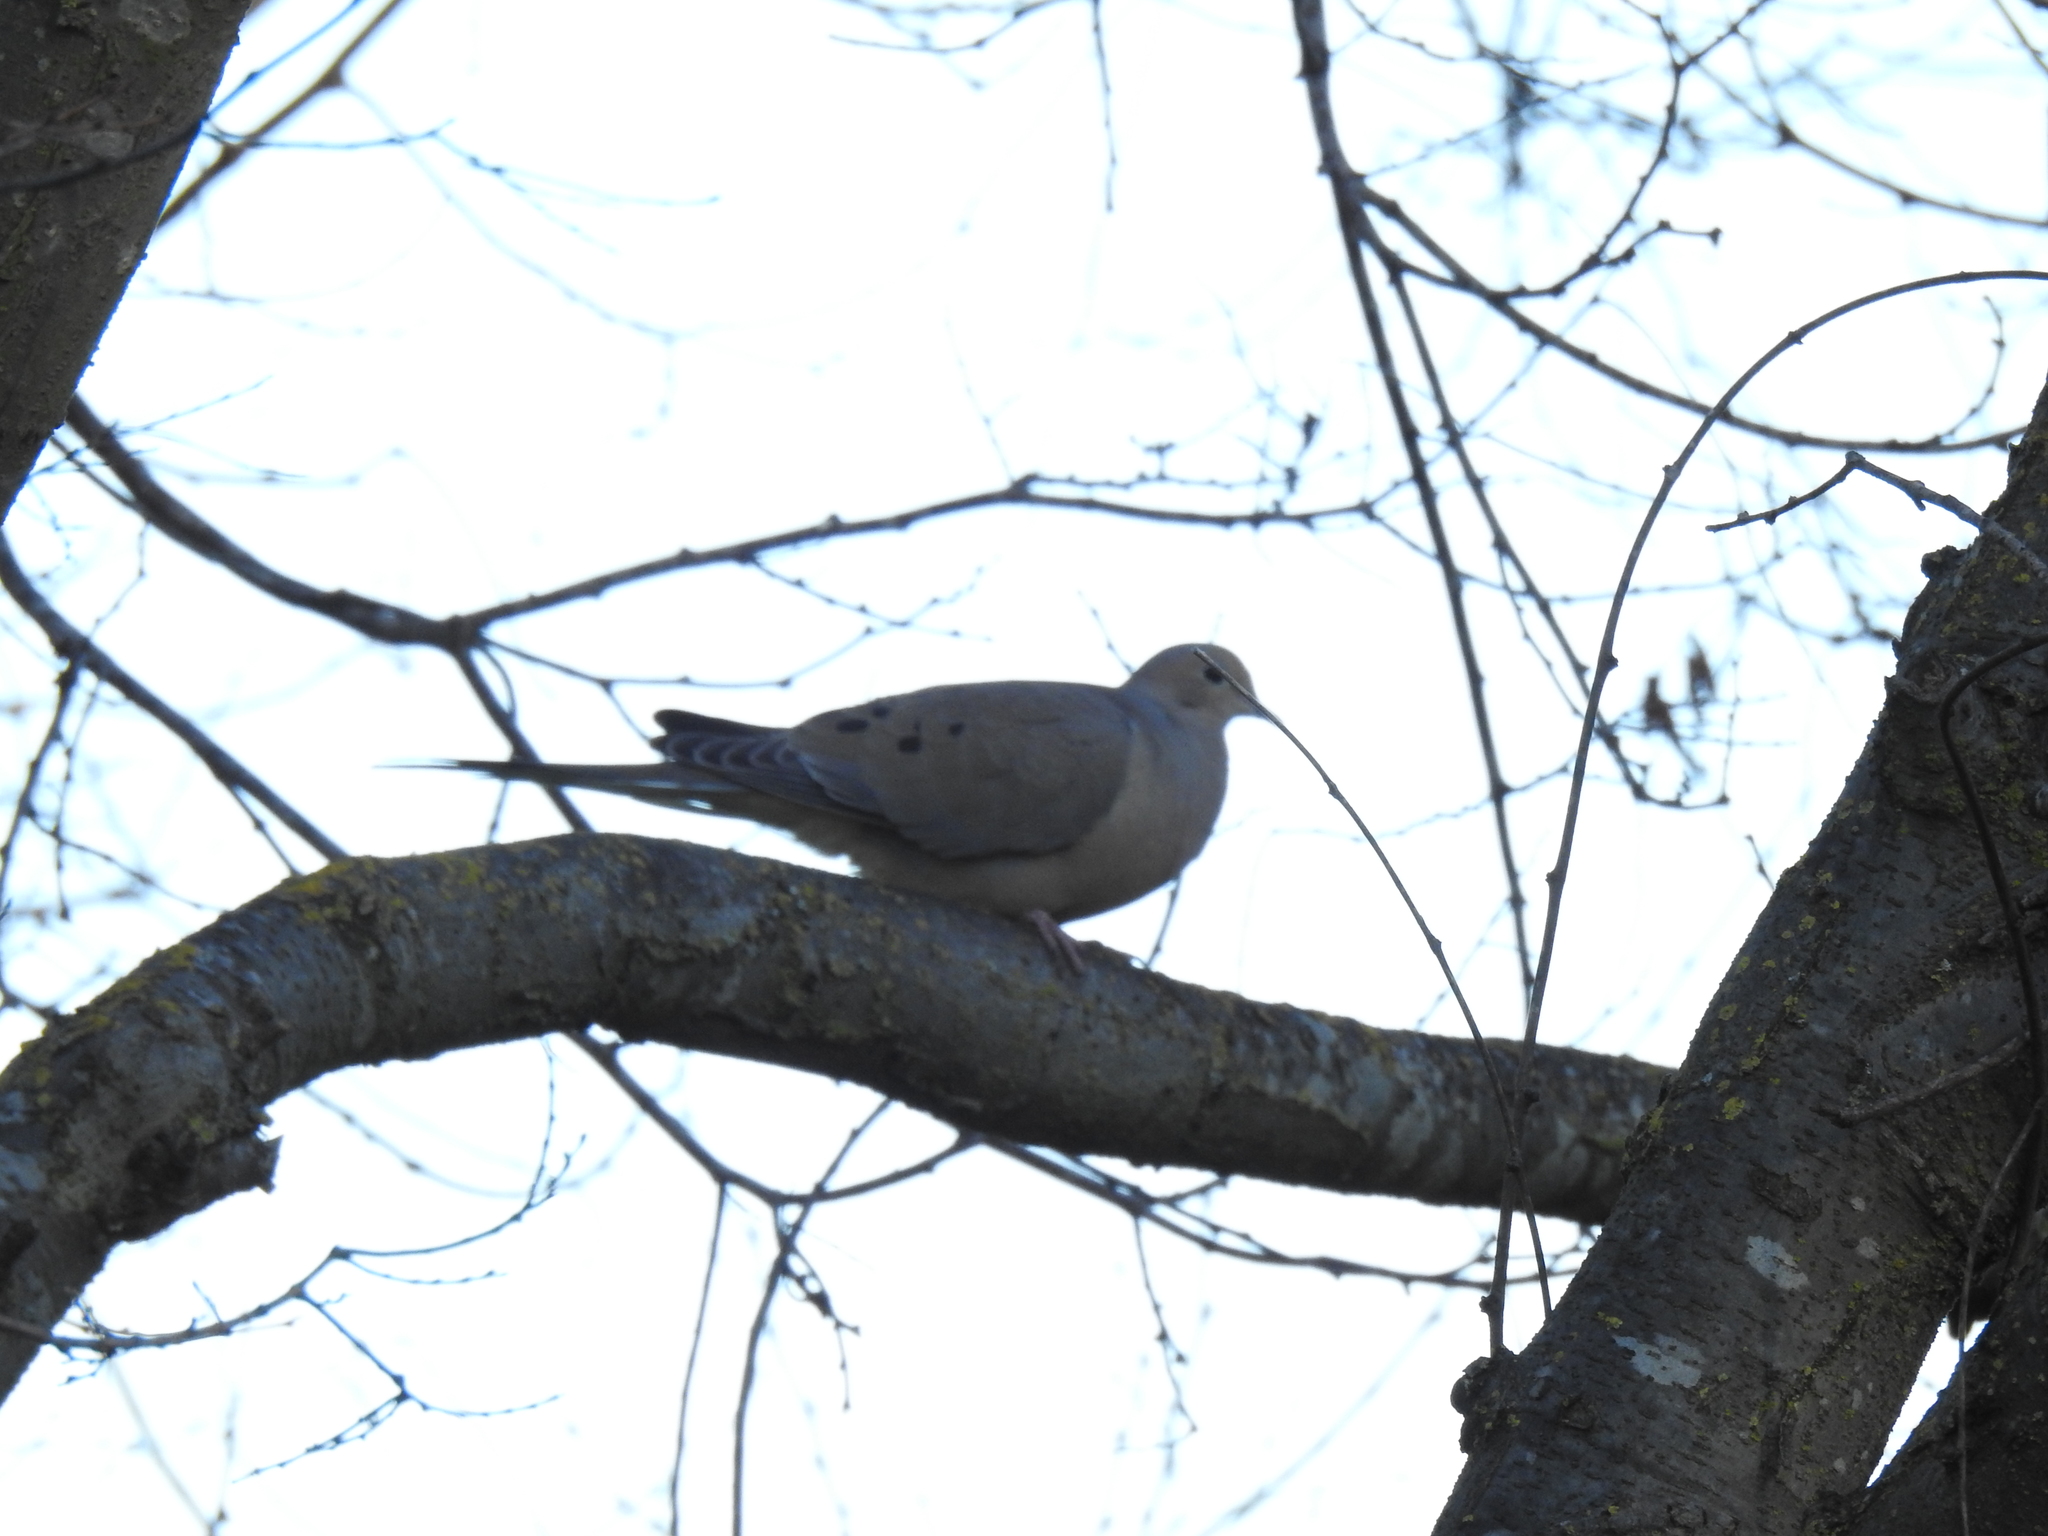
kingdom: Animalia
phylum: Chordata
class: Aves
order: Columbiformes
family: Columbidae
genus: Zenaida
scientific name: Zenaida macroura
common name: Mourning dove
